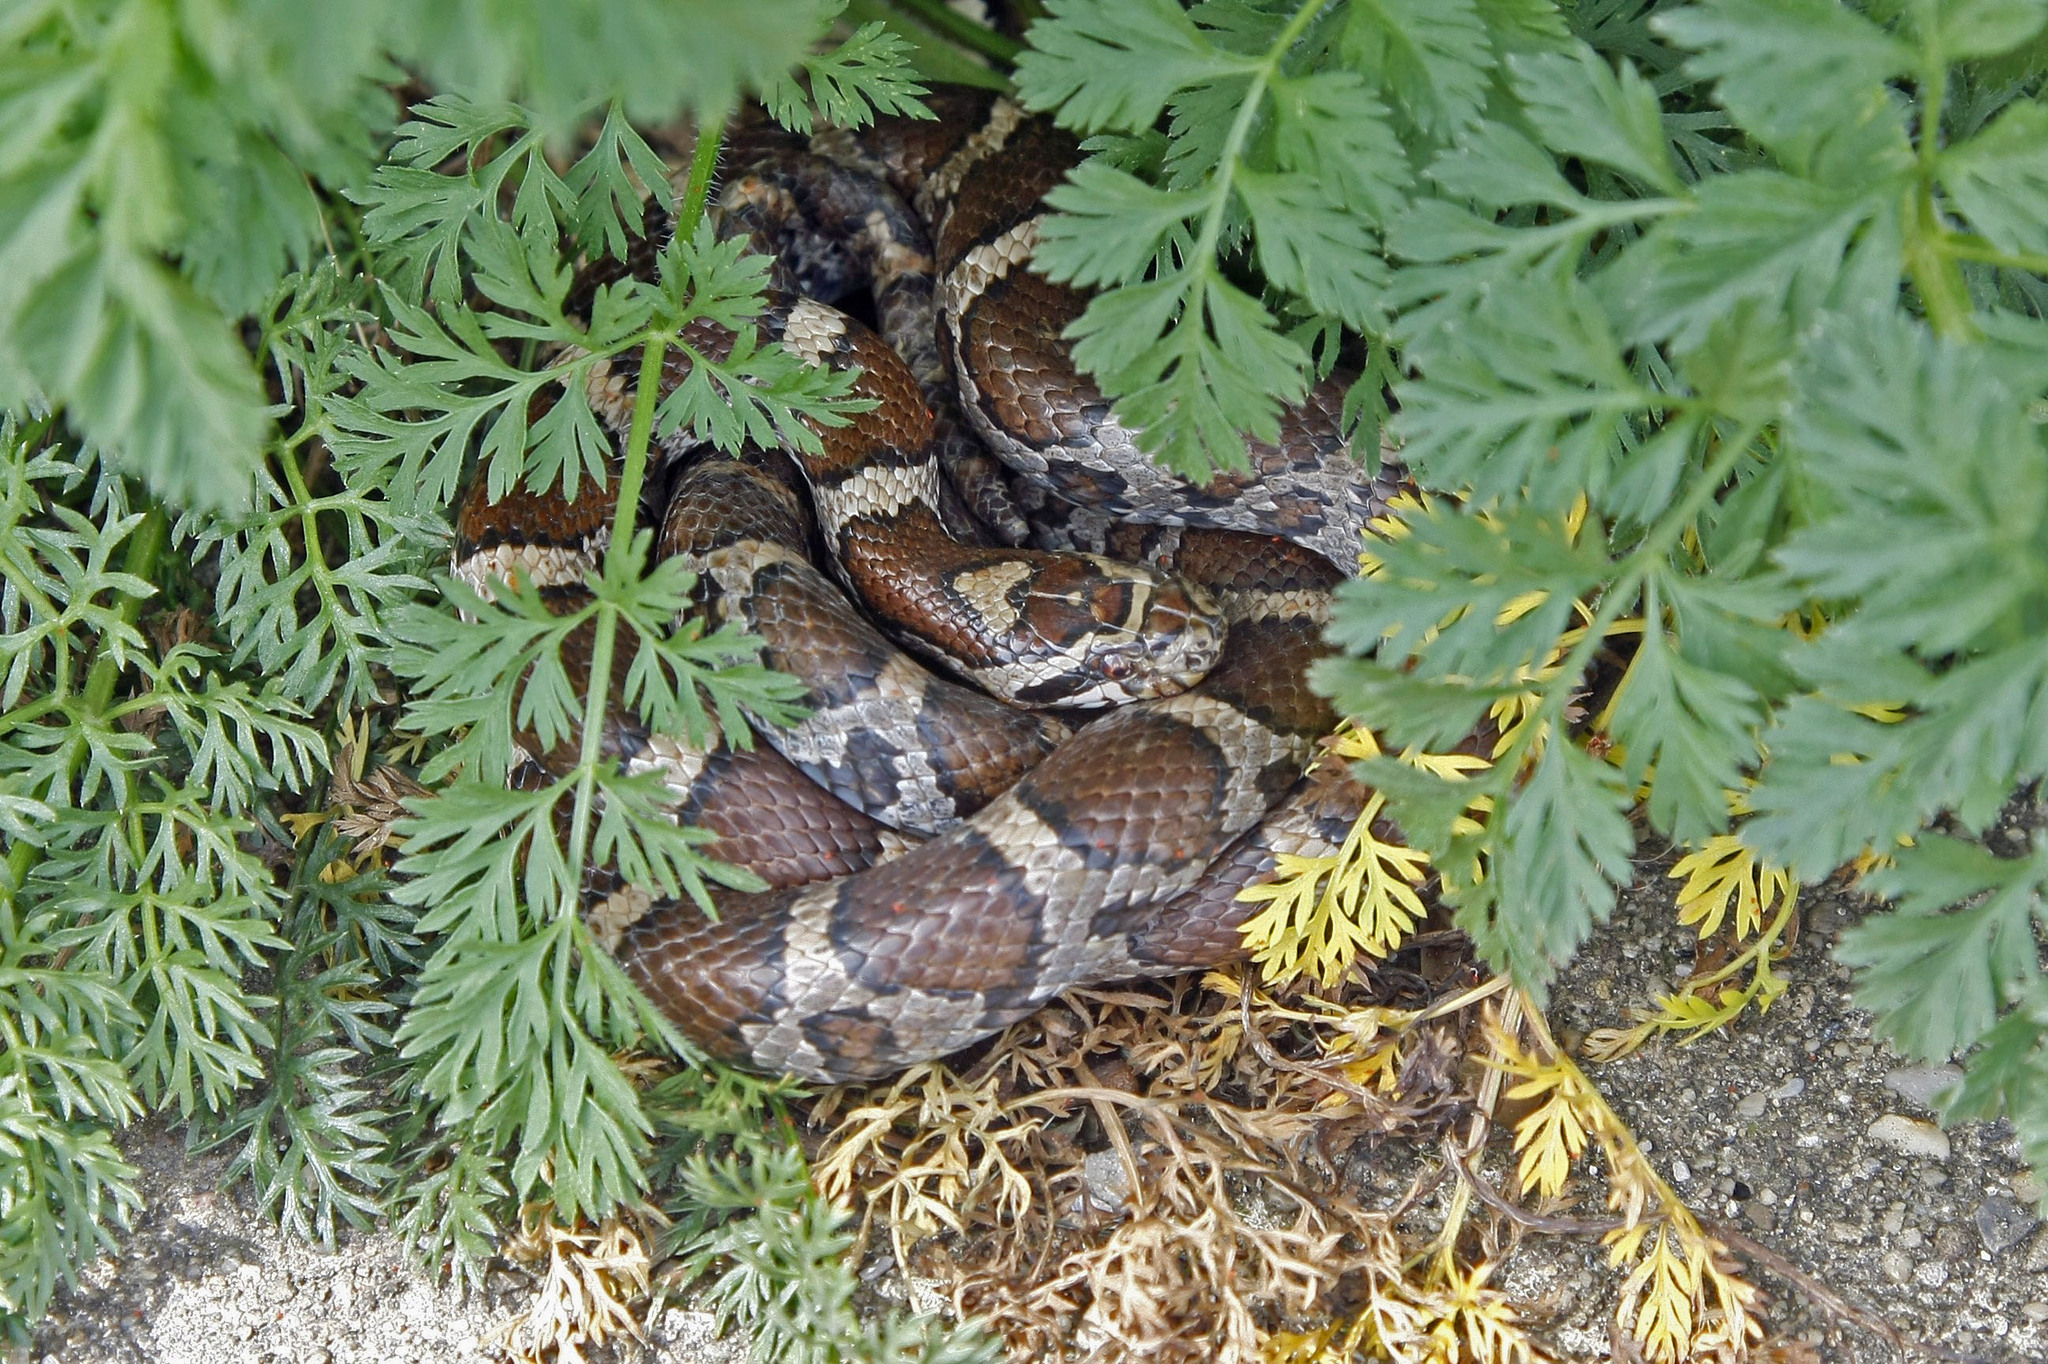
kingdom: Animalia
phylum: Chordata
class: Squamata
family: Colubridae
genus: Lampropeltis
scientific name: Lampropeltis triangulum
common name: Eastern milksnake
